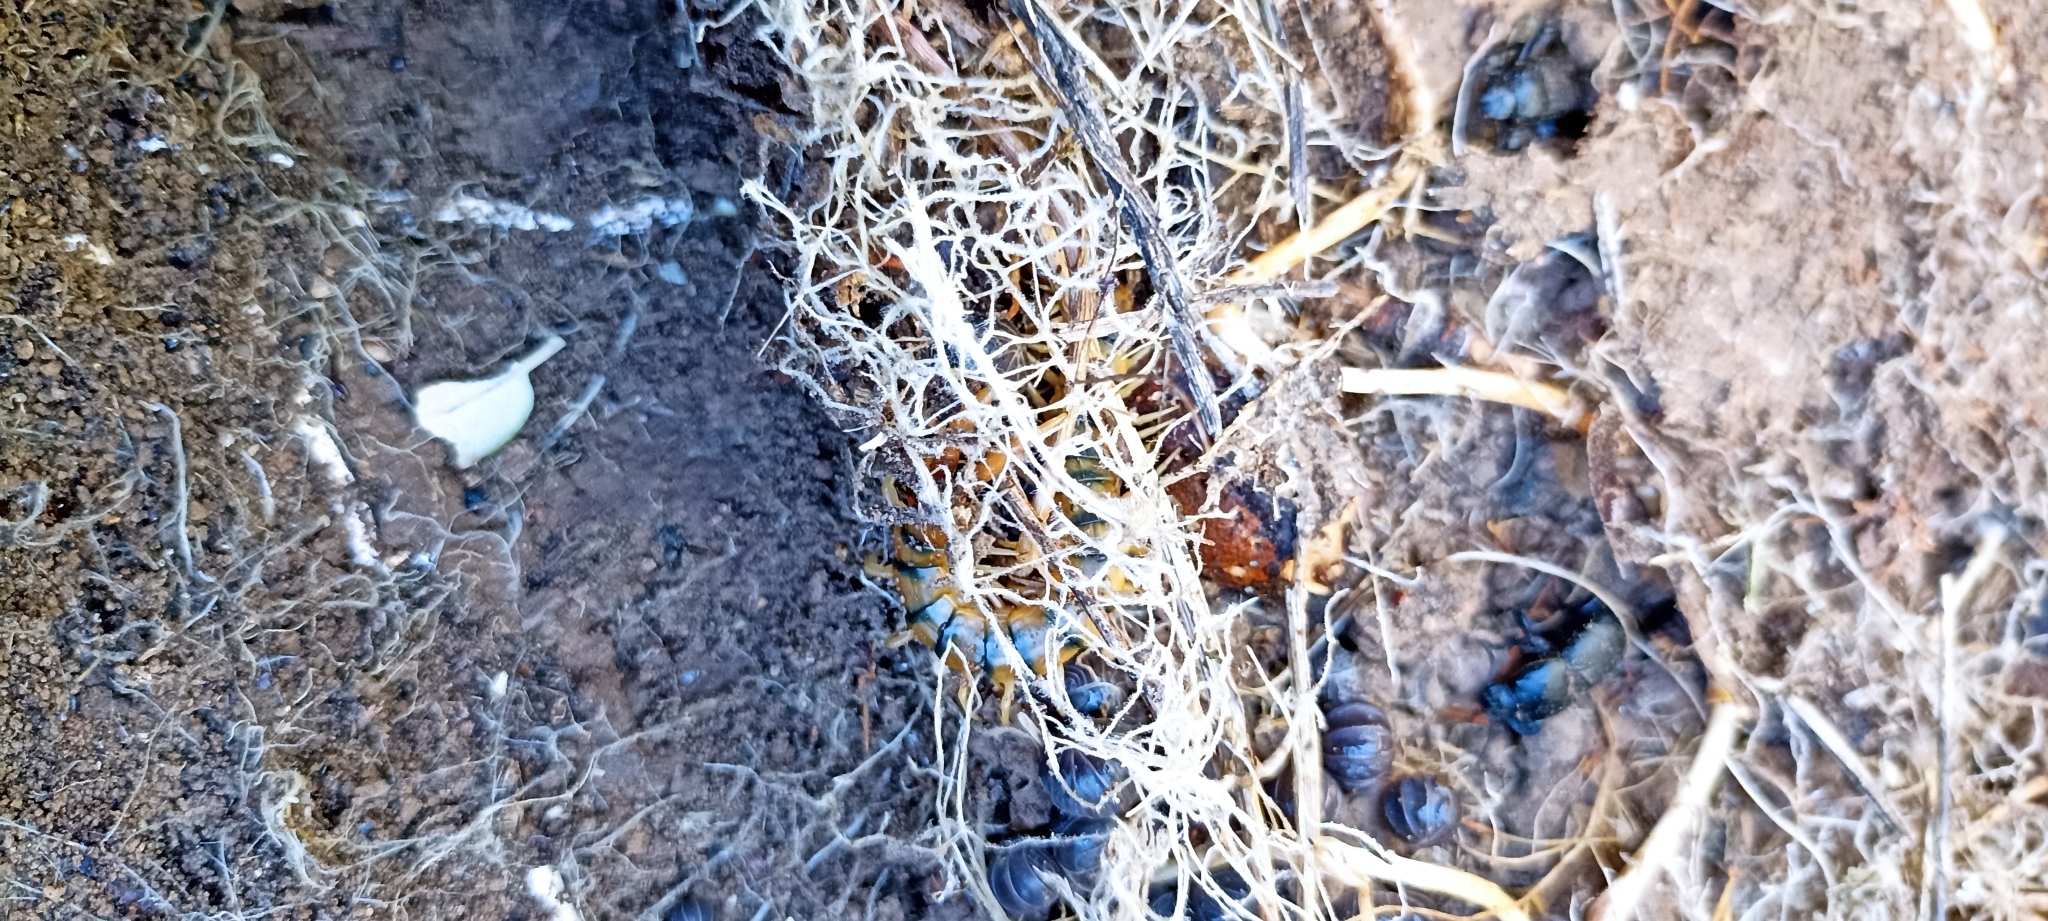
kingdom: Animalia
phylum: Arthropoda
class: Chilopoda
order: Scolopendromorpha
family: Scolopendridae
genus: Scolopendra
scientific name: Scolopendra cingulata
